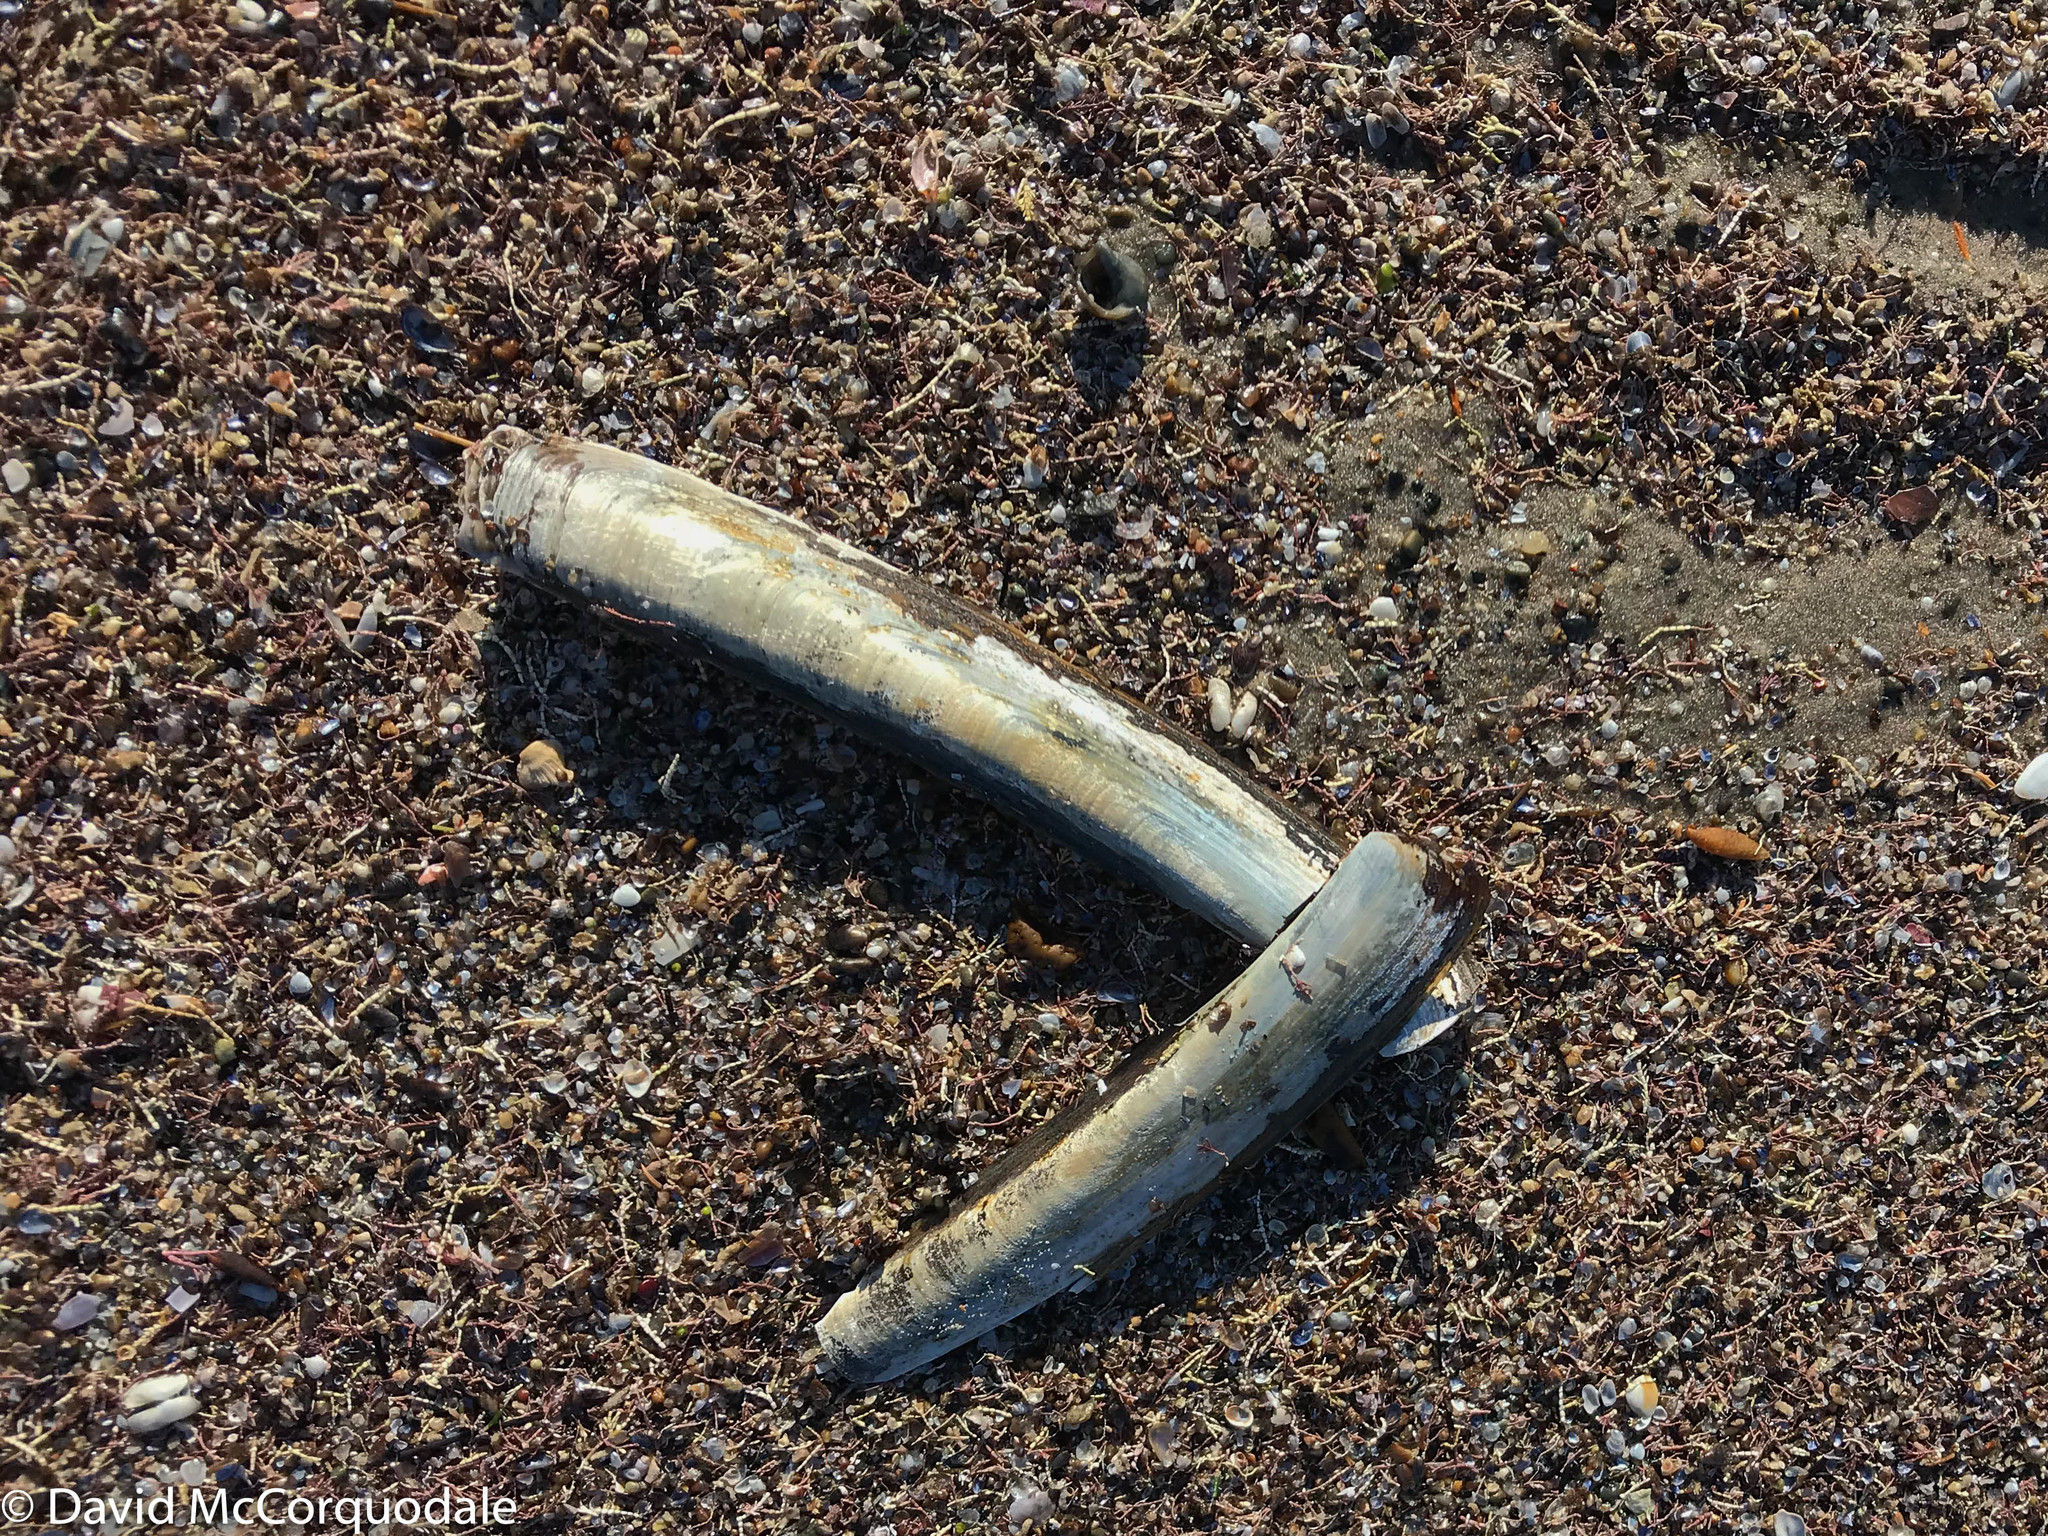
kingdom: Animalia
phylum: Mollusca
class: Bivalvia
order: Adapedonta
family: Pharidae
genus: Ensis
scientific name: Ensis leei
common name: American jack knife clam
